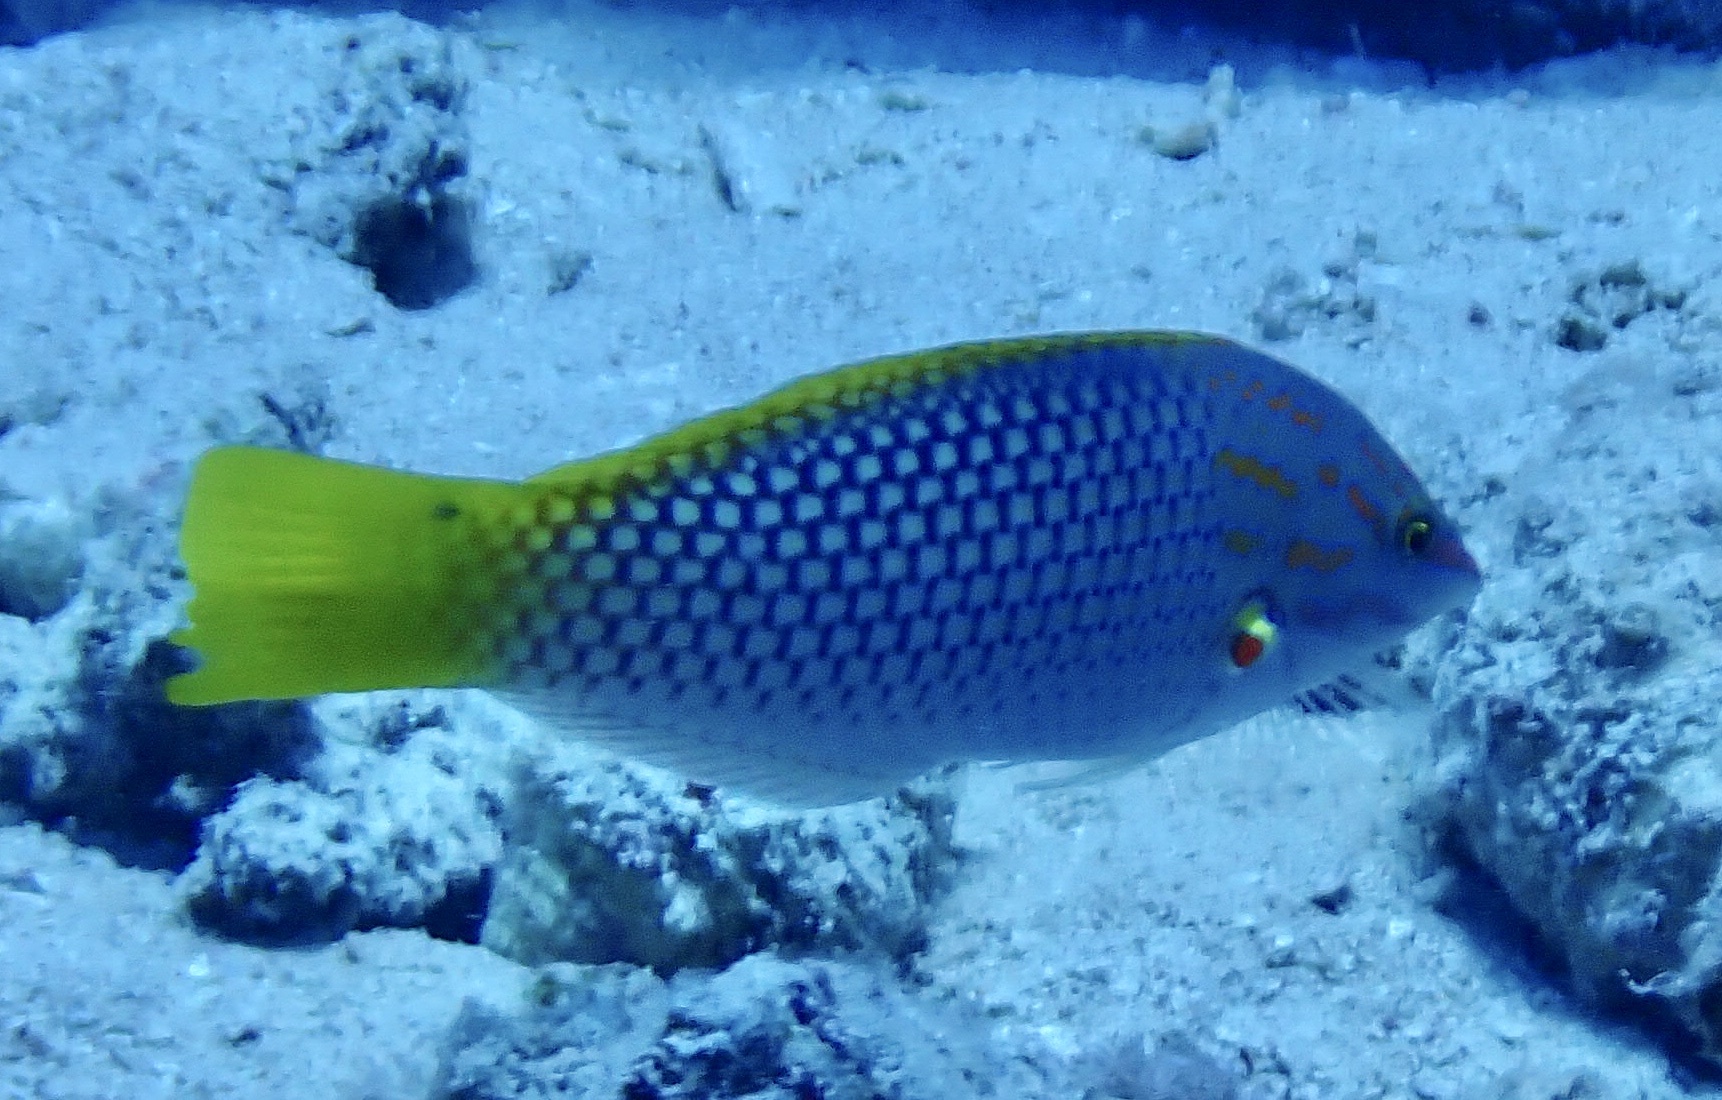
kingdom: Animalia
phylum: Chordata
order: Perciformes
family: Labridae
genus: Halichoeres
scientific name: Halichoeres hortulanus
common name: Checkerboard wrasse
